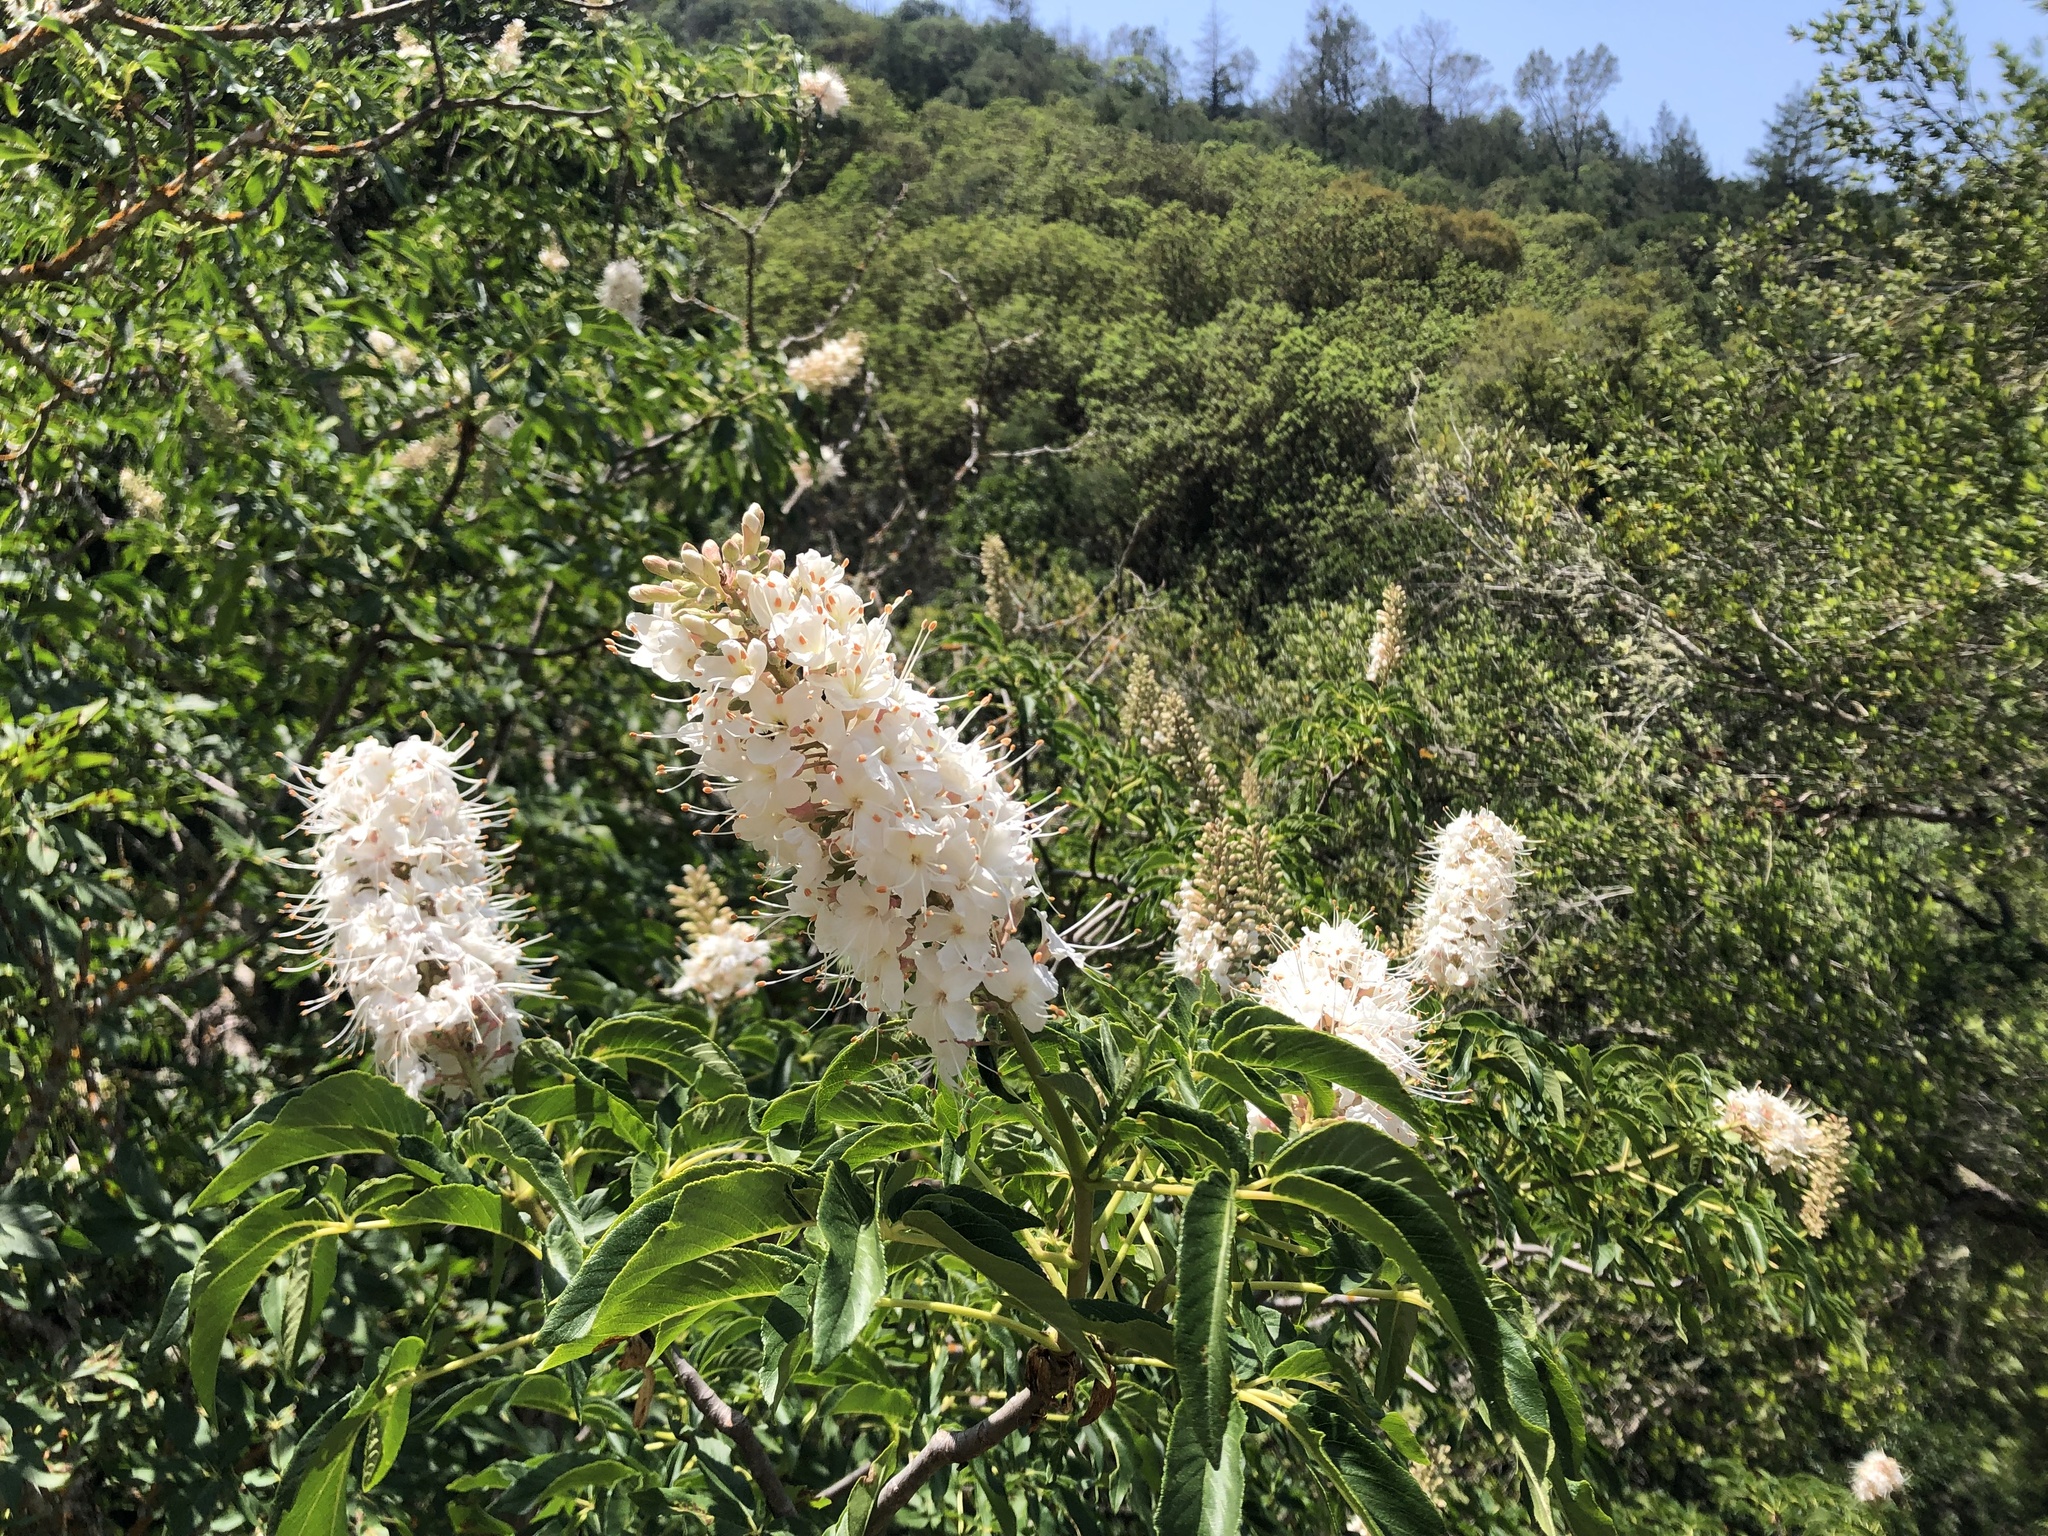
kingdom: Plantae
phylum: Tracheophyta
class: Magnoliopsida
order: Sapindales
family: Sapindaceae
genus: Aesculus
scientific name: Aesculus californica
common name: California buckeye
